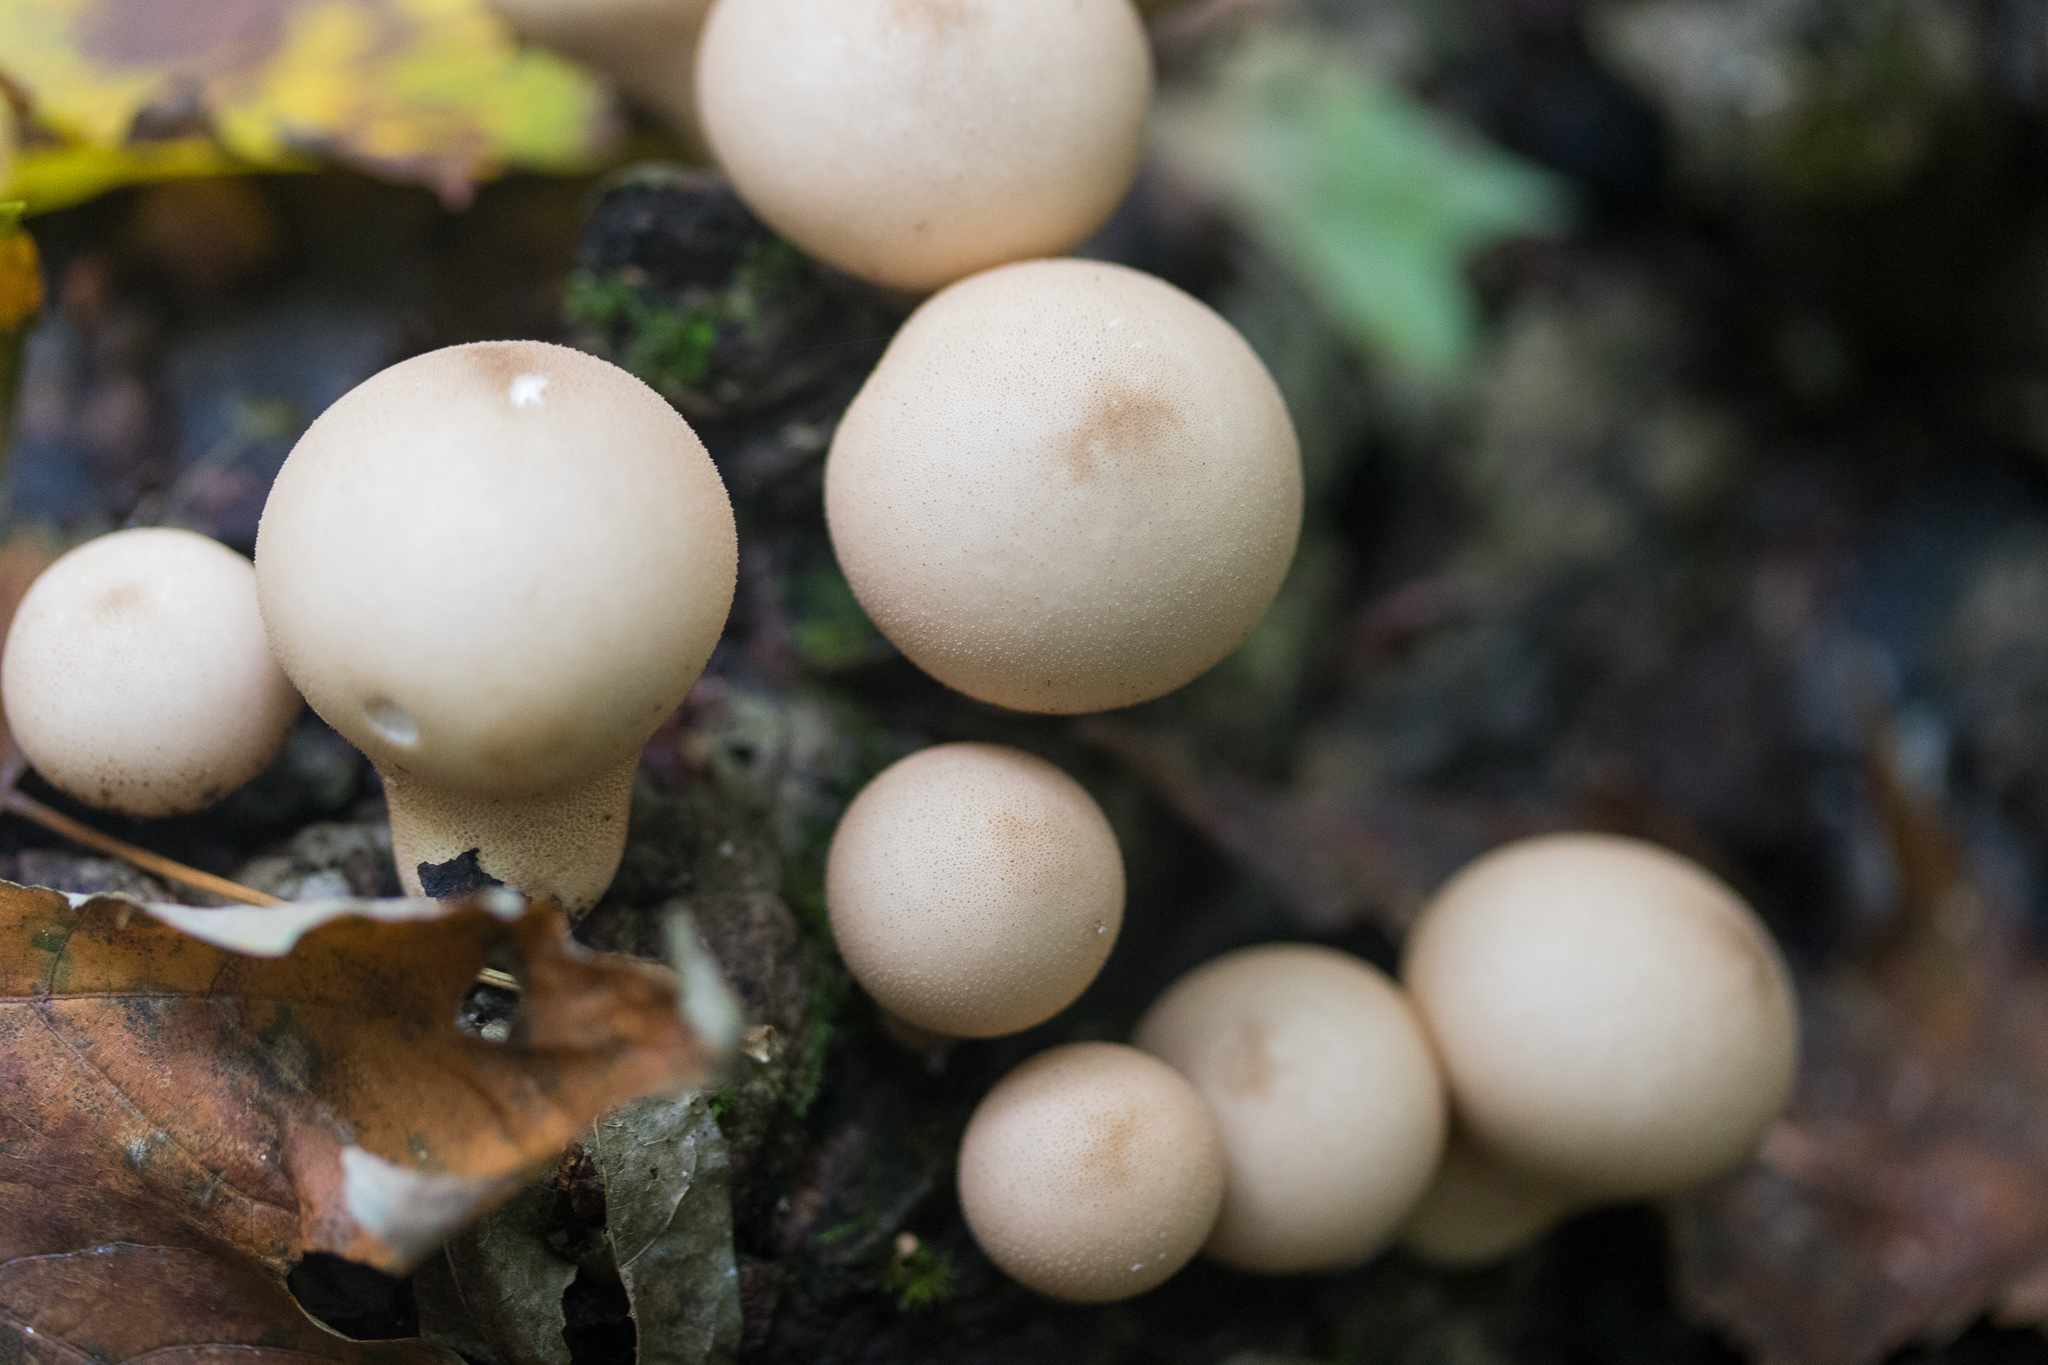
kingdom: Fungi
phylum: Basidiomycota
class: Agaricomycetes
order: Agaricales
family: Lycoperdaceae
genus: Apioperdon
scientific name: Apioperdon pyriforme
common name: Pear-shaped puffball
